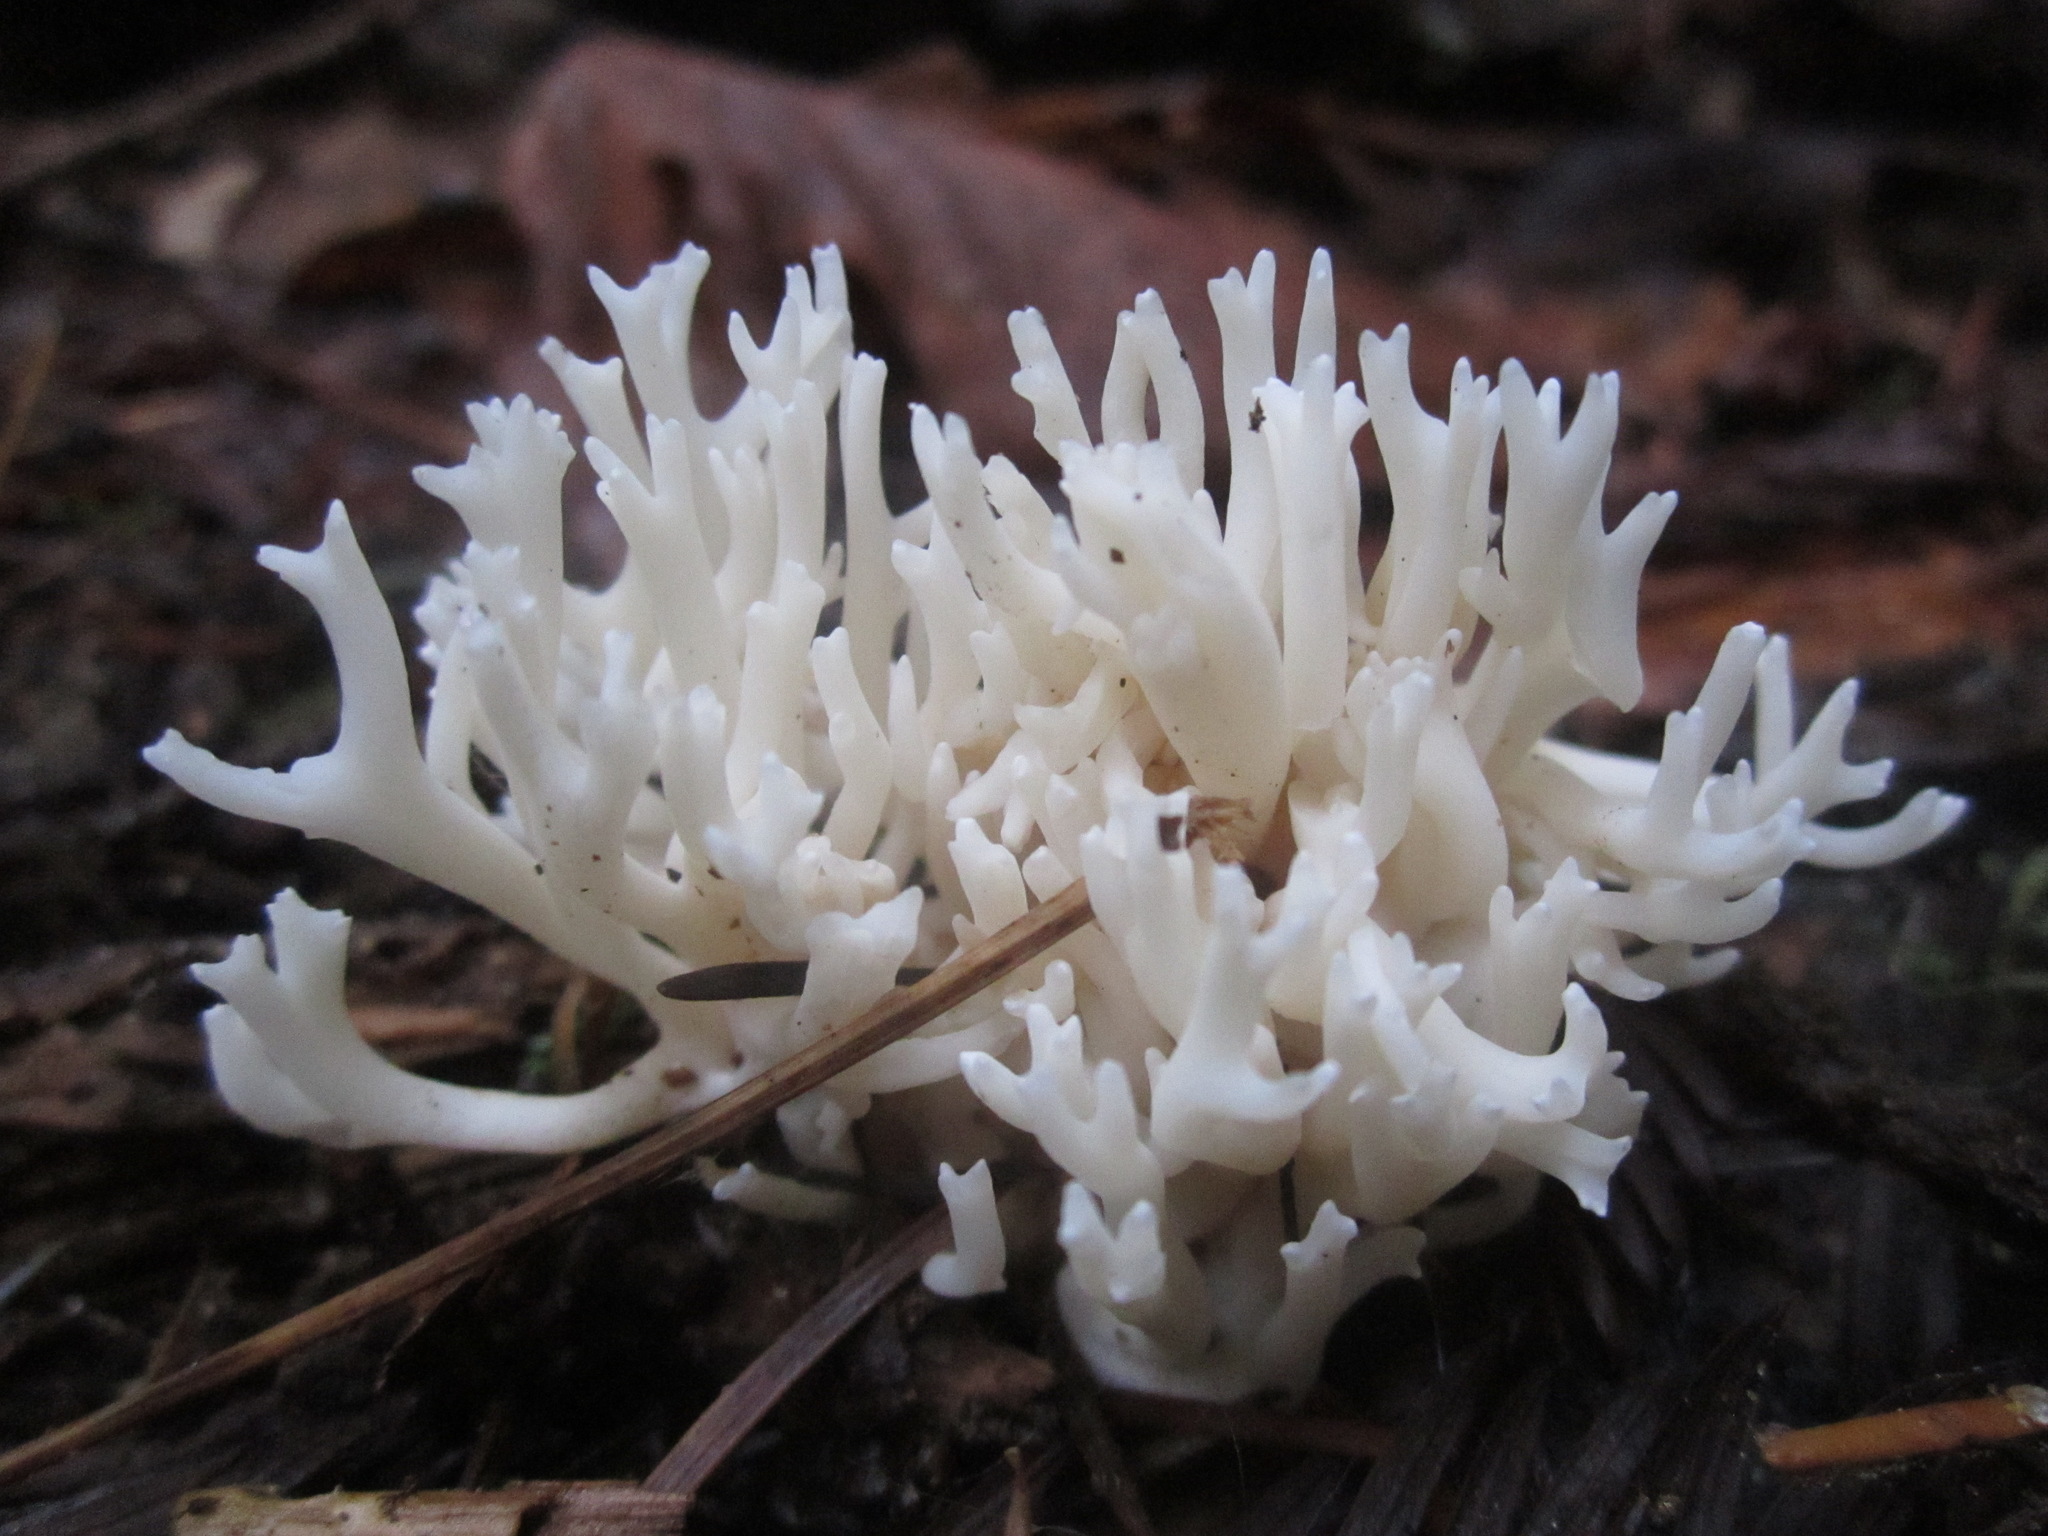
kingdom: Fungi
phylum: Basidiomycota
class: Agaricomycetes
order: Agaricales
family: Clavariaceae
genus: Ramariopsis
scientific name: Ramariopsis kunzei
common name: Ivory coral
